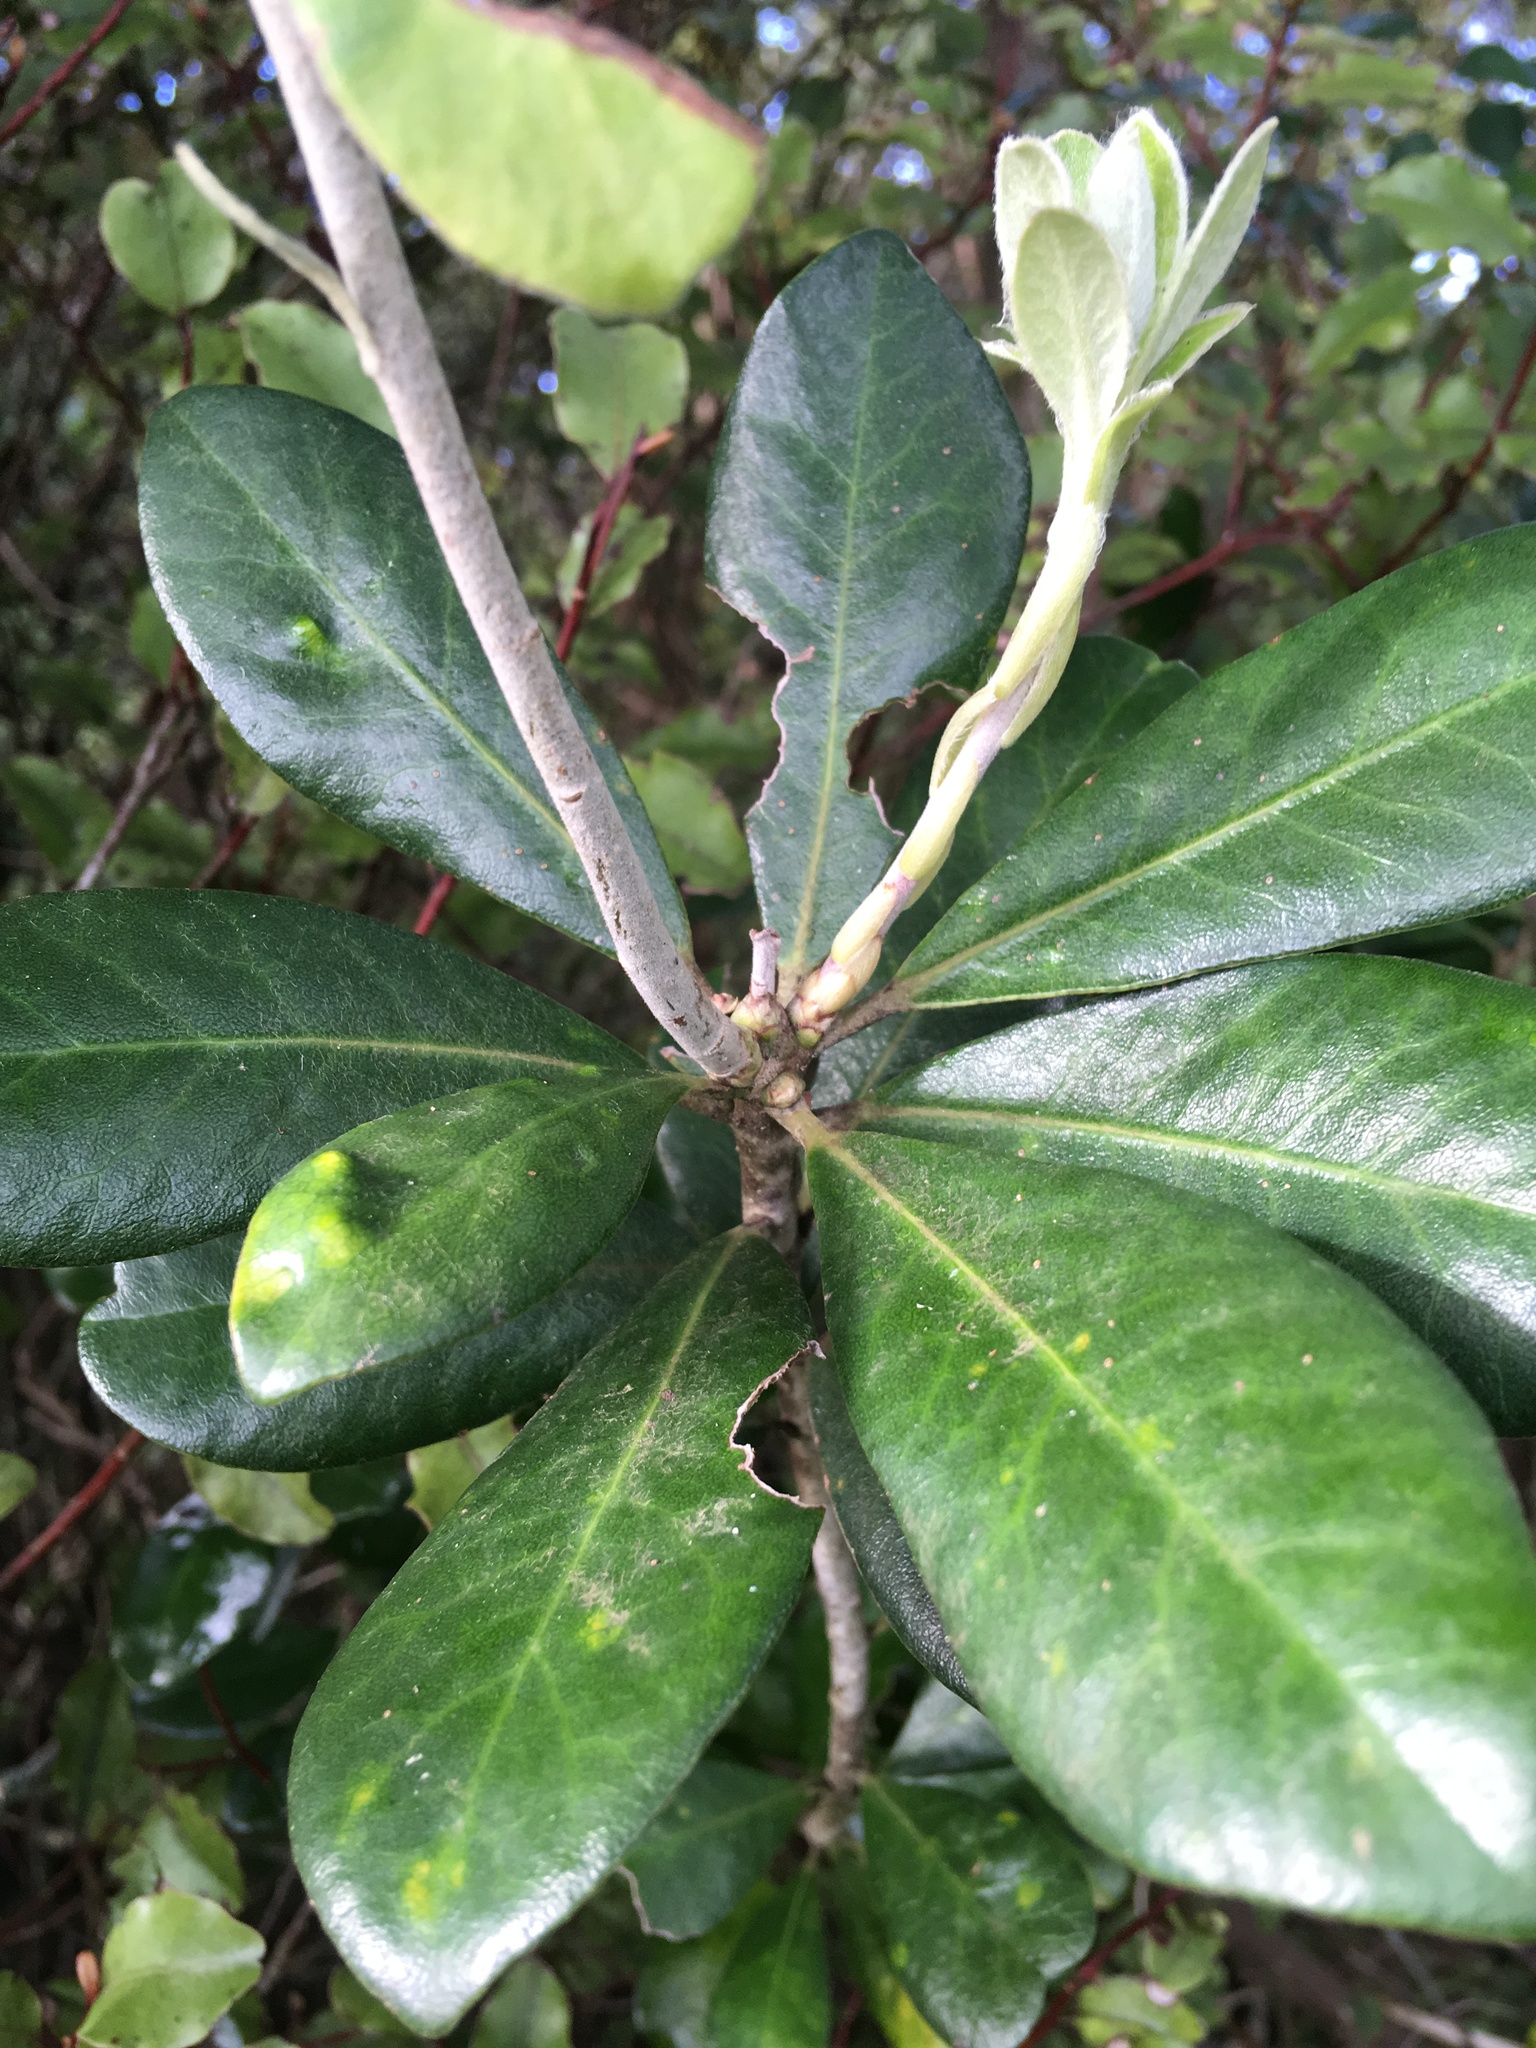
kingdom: Plantae
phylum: Tracheophyta
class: Magnoliopsida
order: Apiales
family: Pittosporaceae
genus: Pittosporum
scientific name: Pittosporum crassifolium
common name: Karo
